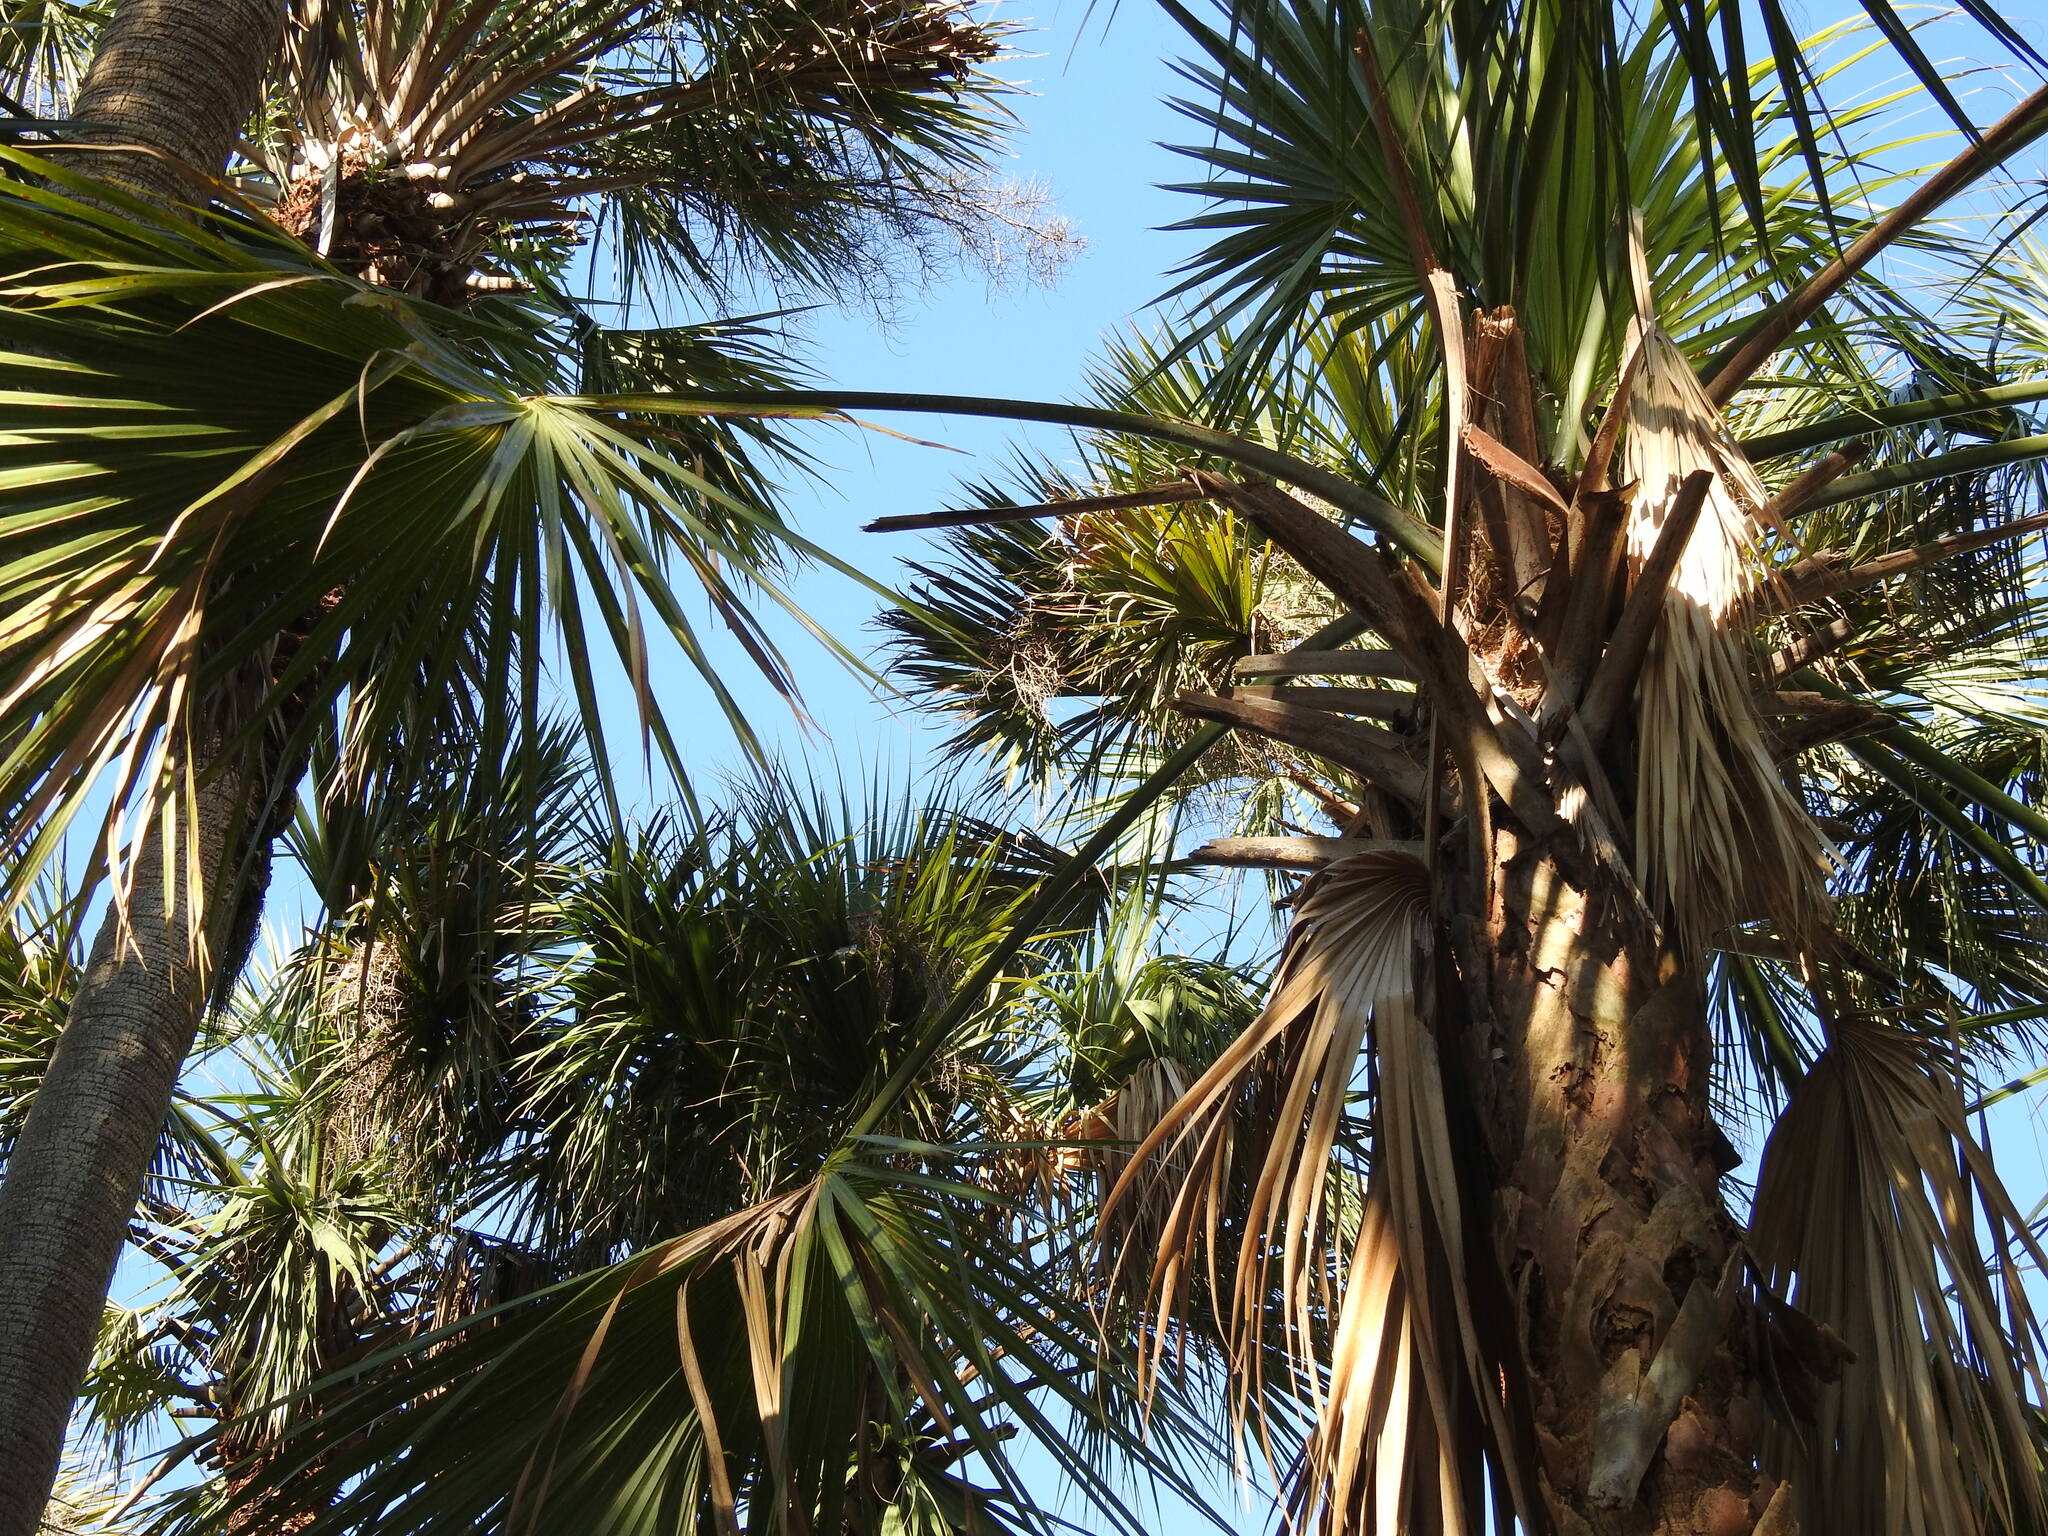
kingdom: Plantae
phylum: Tracheophyta
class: Liliopsida
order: Arecales
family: Arecaceae
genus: Sabal
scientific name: Sabal palmetto
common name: Blue palmetto
